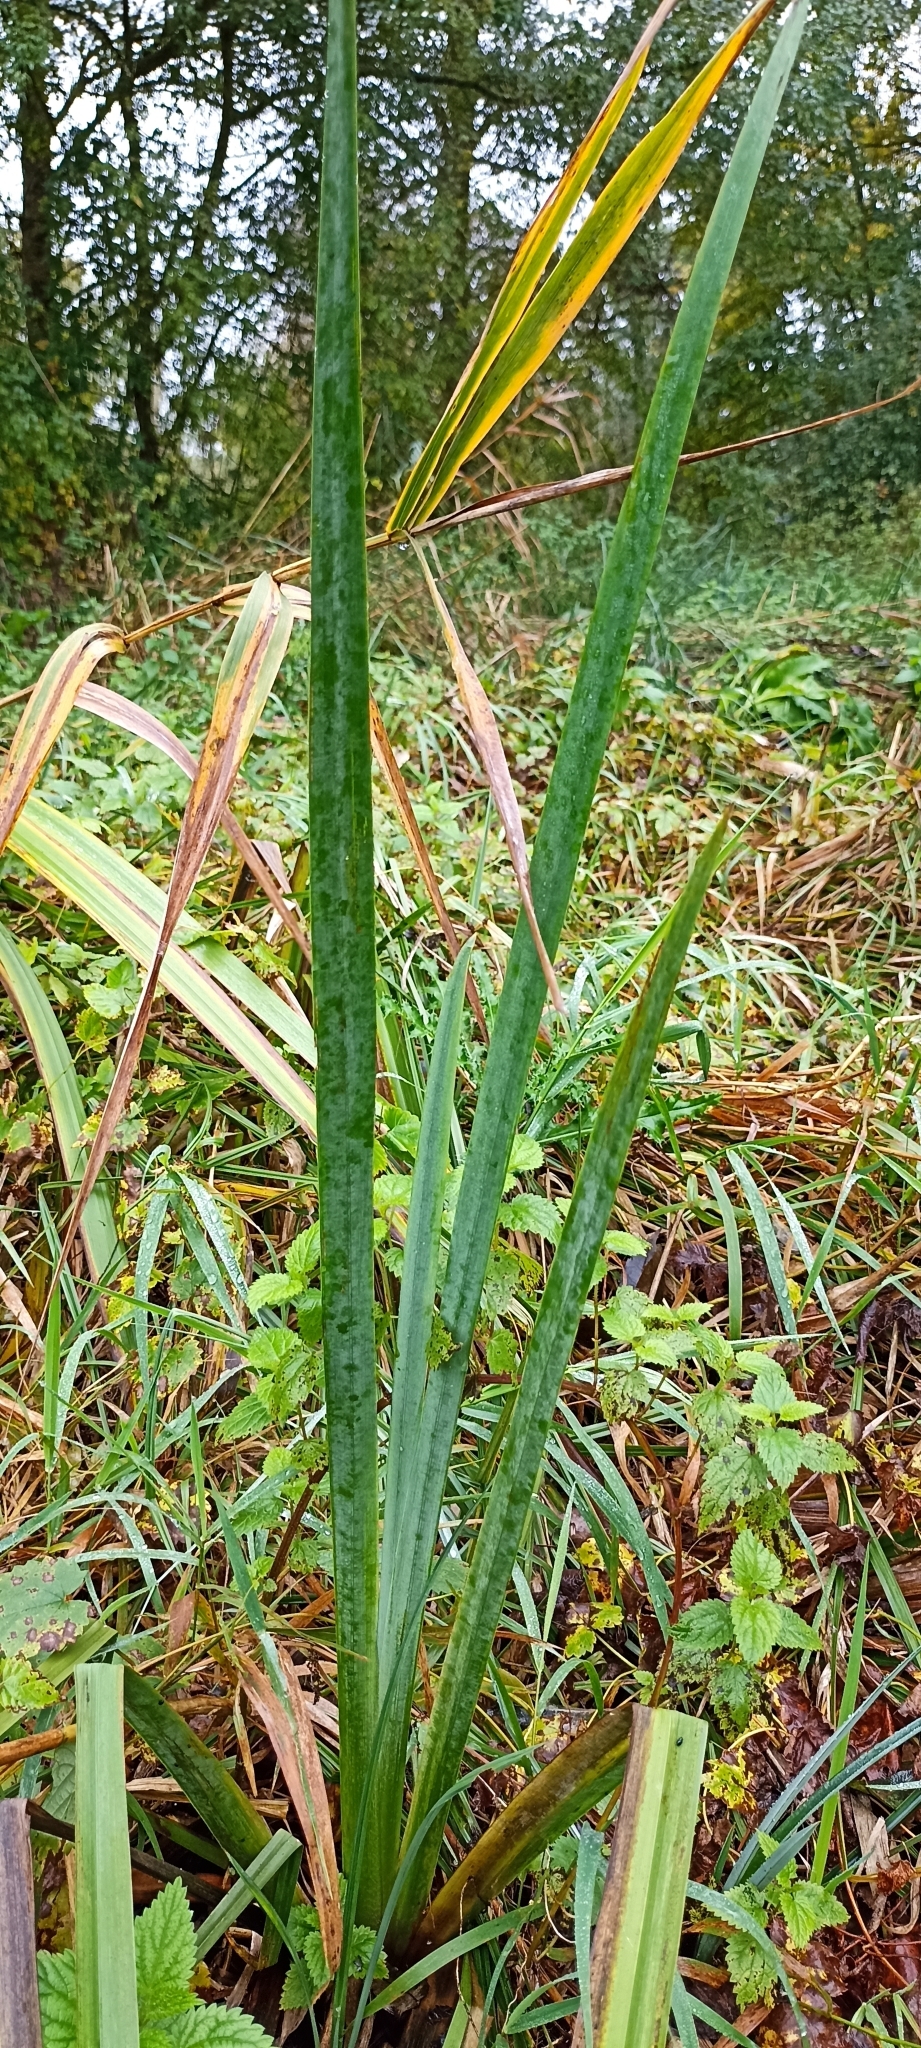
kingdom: Plantae
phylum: Tracheophyta
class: Liliopsida
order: Asparagales
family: Iridaceae
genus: Iris
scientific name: Iris pseudacorus
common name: Yellow flag
